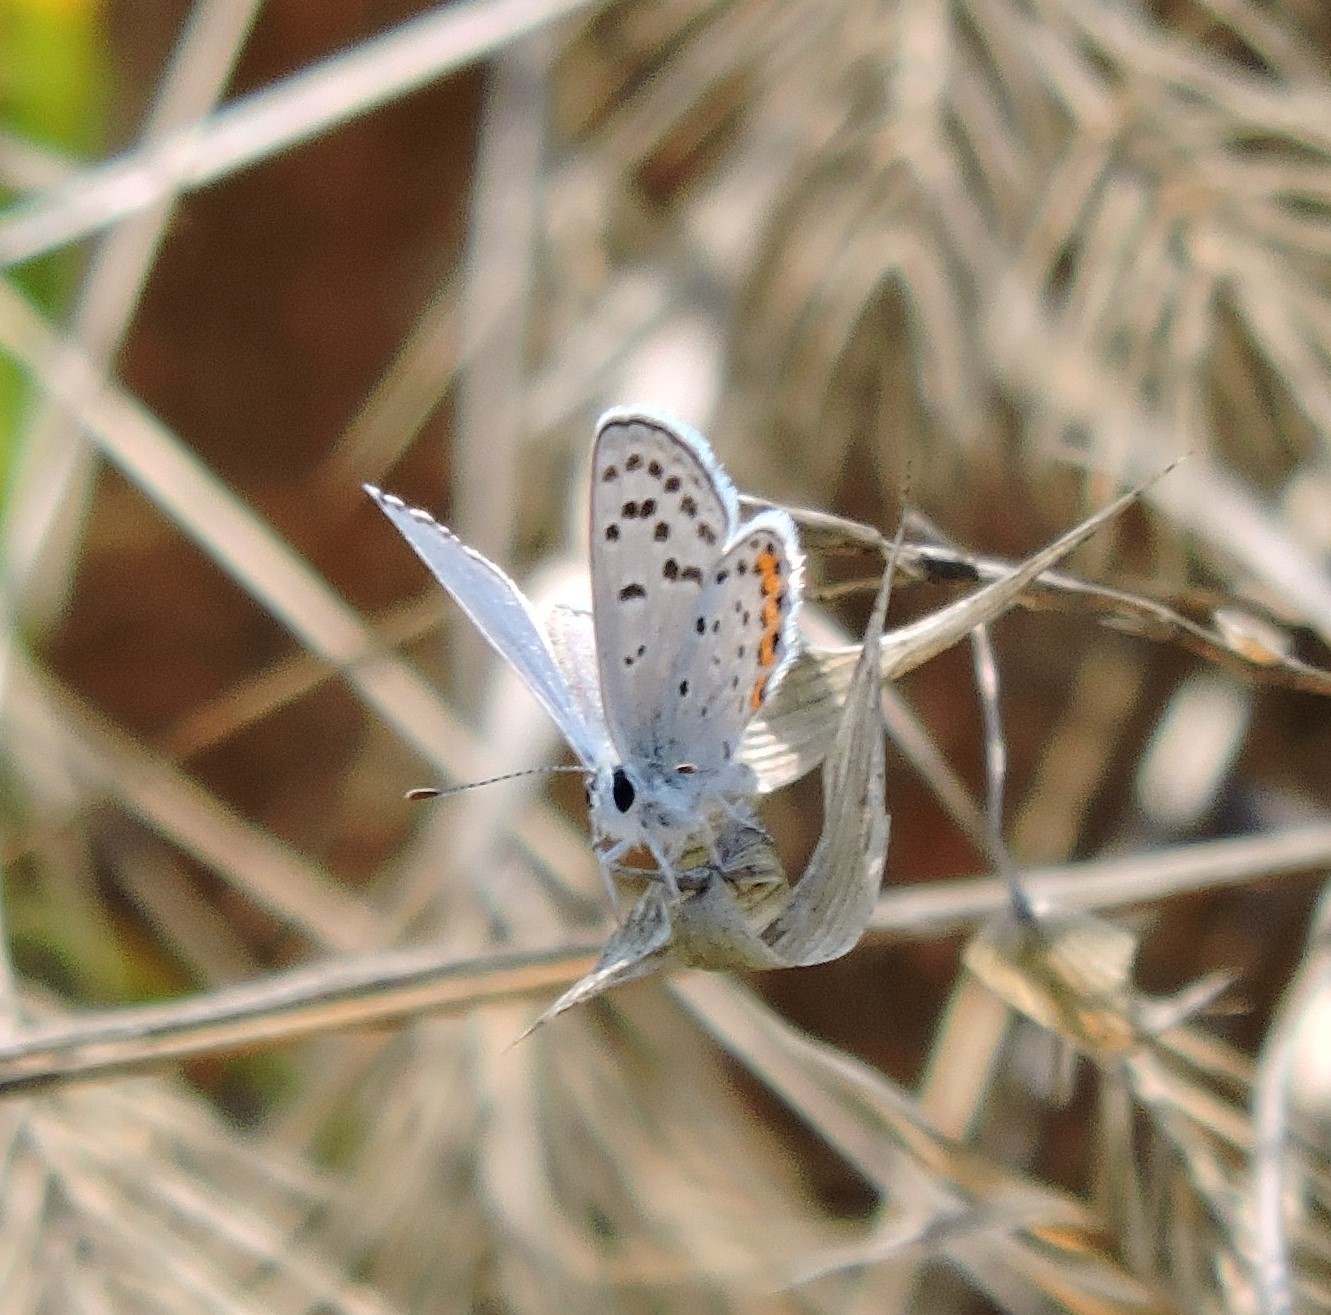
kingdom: Animalia
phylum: Arthropoda
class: Insecta
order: Lepidoptera
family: Lycaenidae
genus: Icaricia
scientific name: Icaricia acmon
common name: Acmon blue
